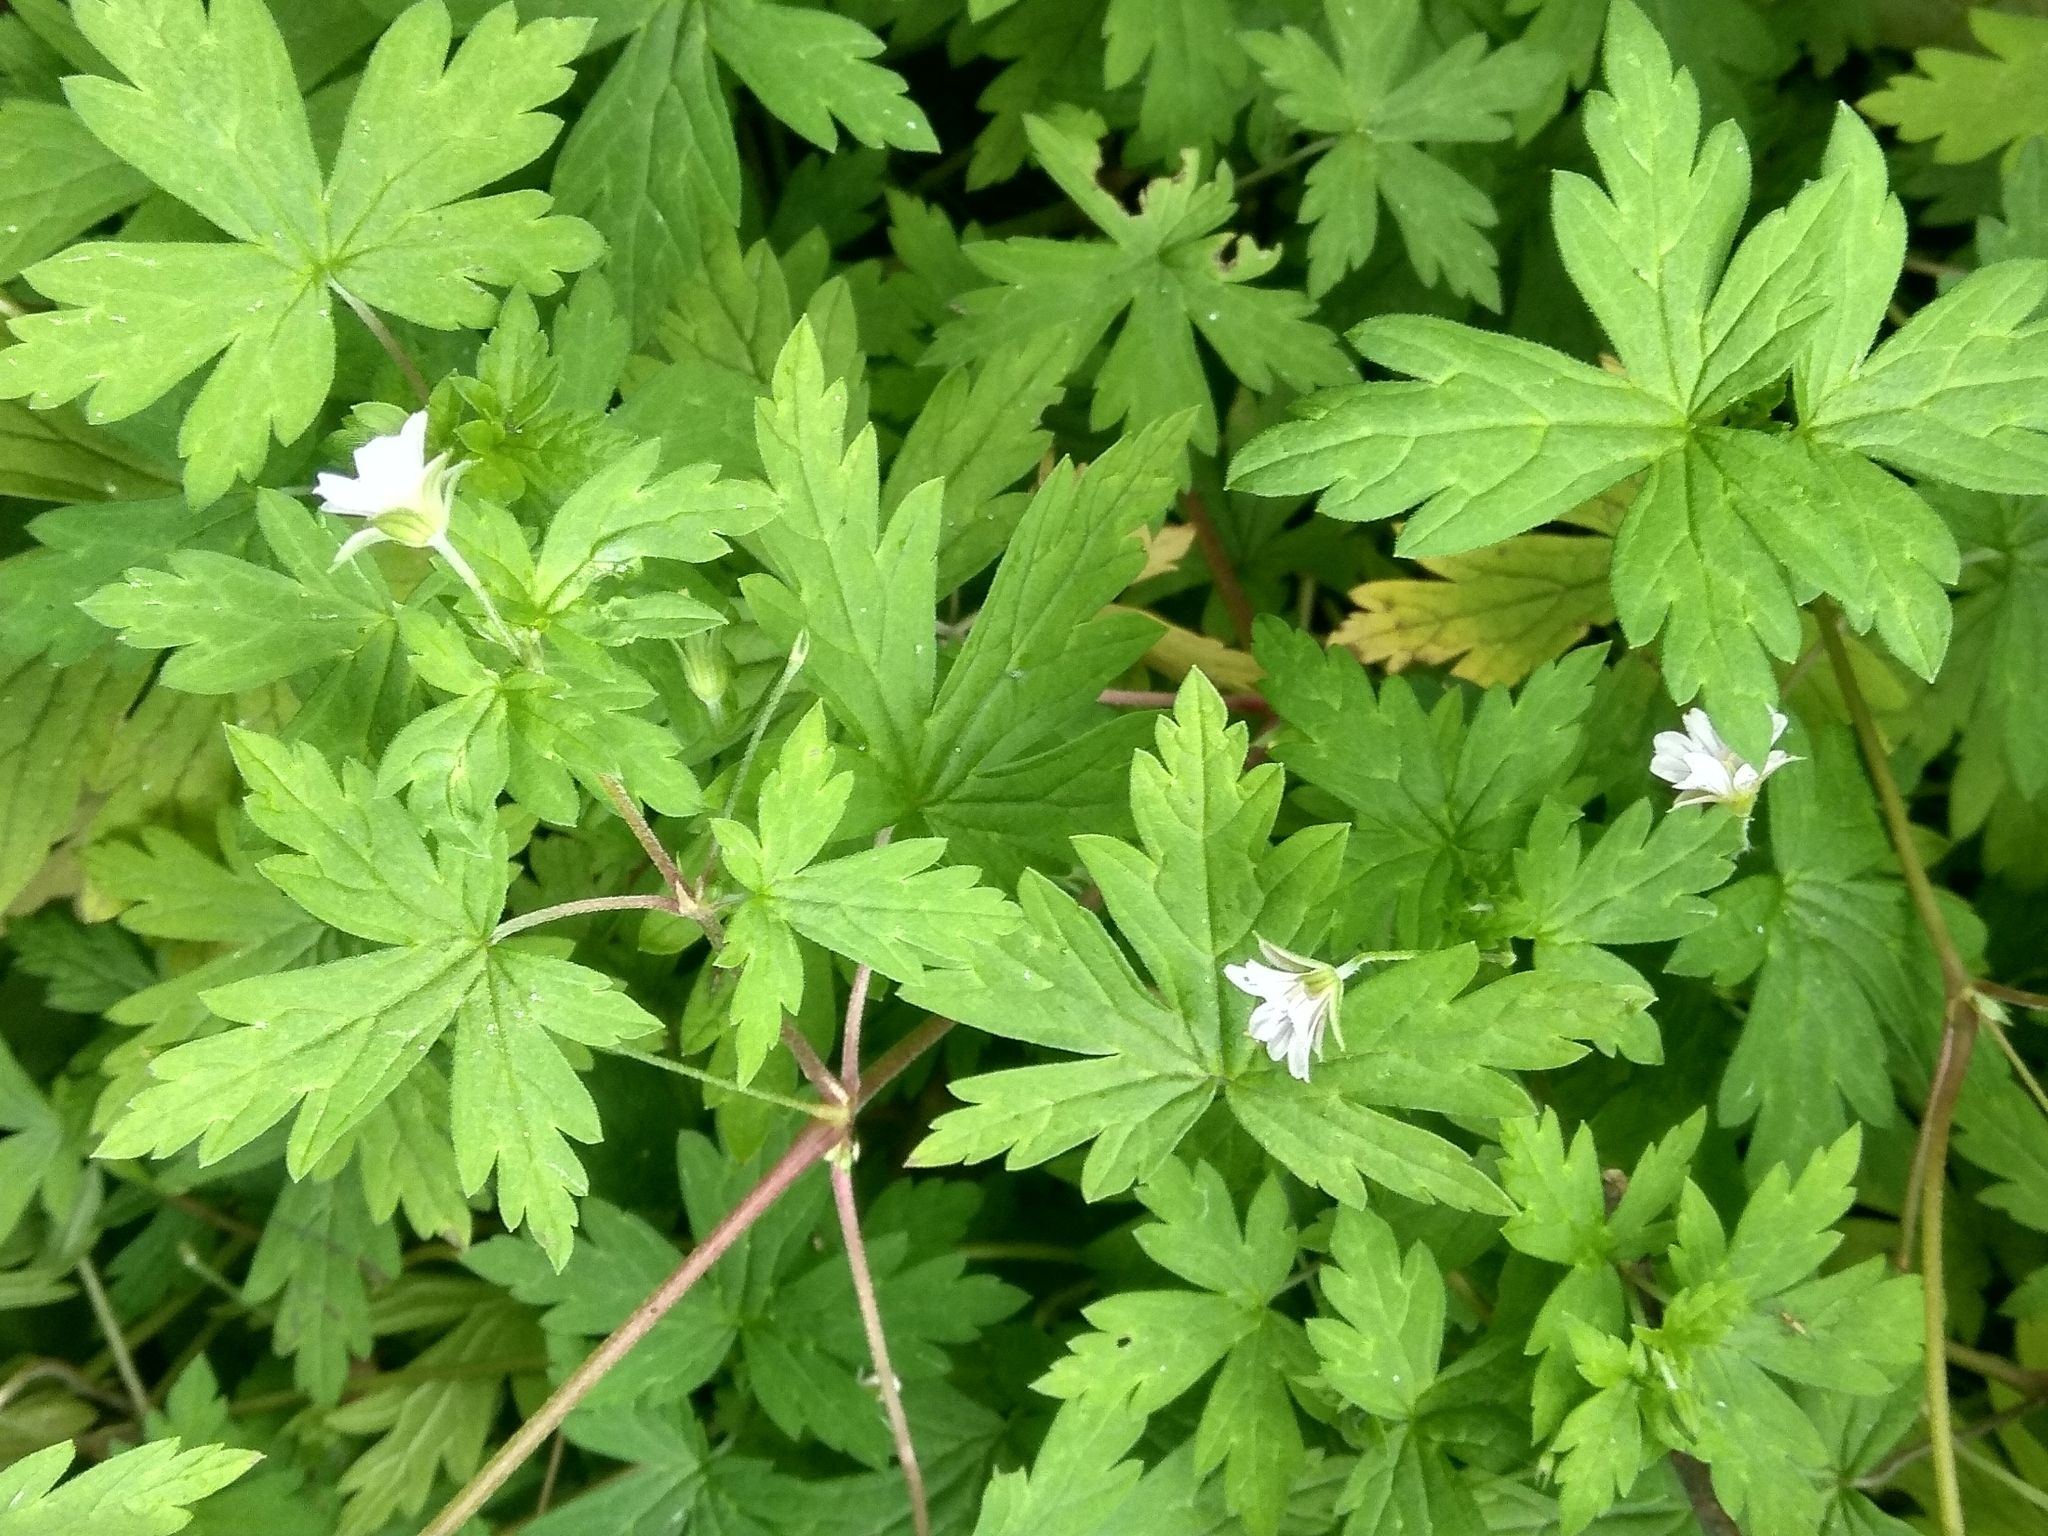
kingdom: Plantae
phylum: Tracheophyta
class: Magnoliopsida
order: Geraniales
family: Geraniaceae
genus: Geranium
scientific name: Geranium sibiricum
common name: Siberian crane's-bill
